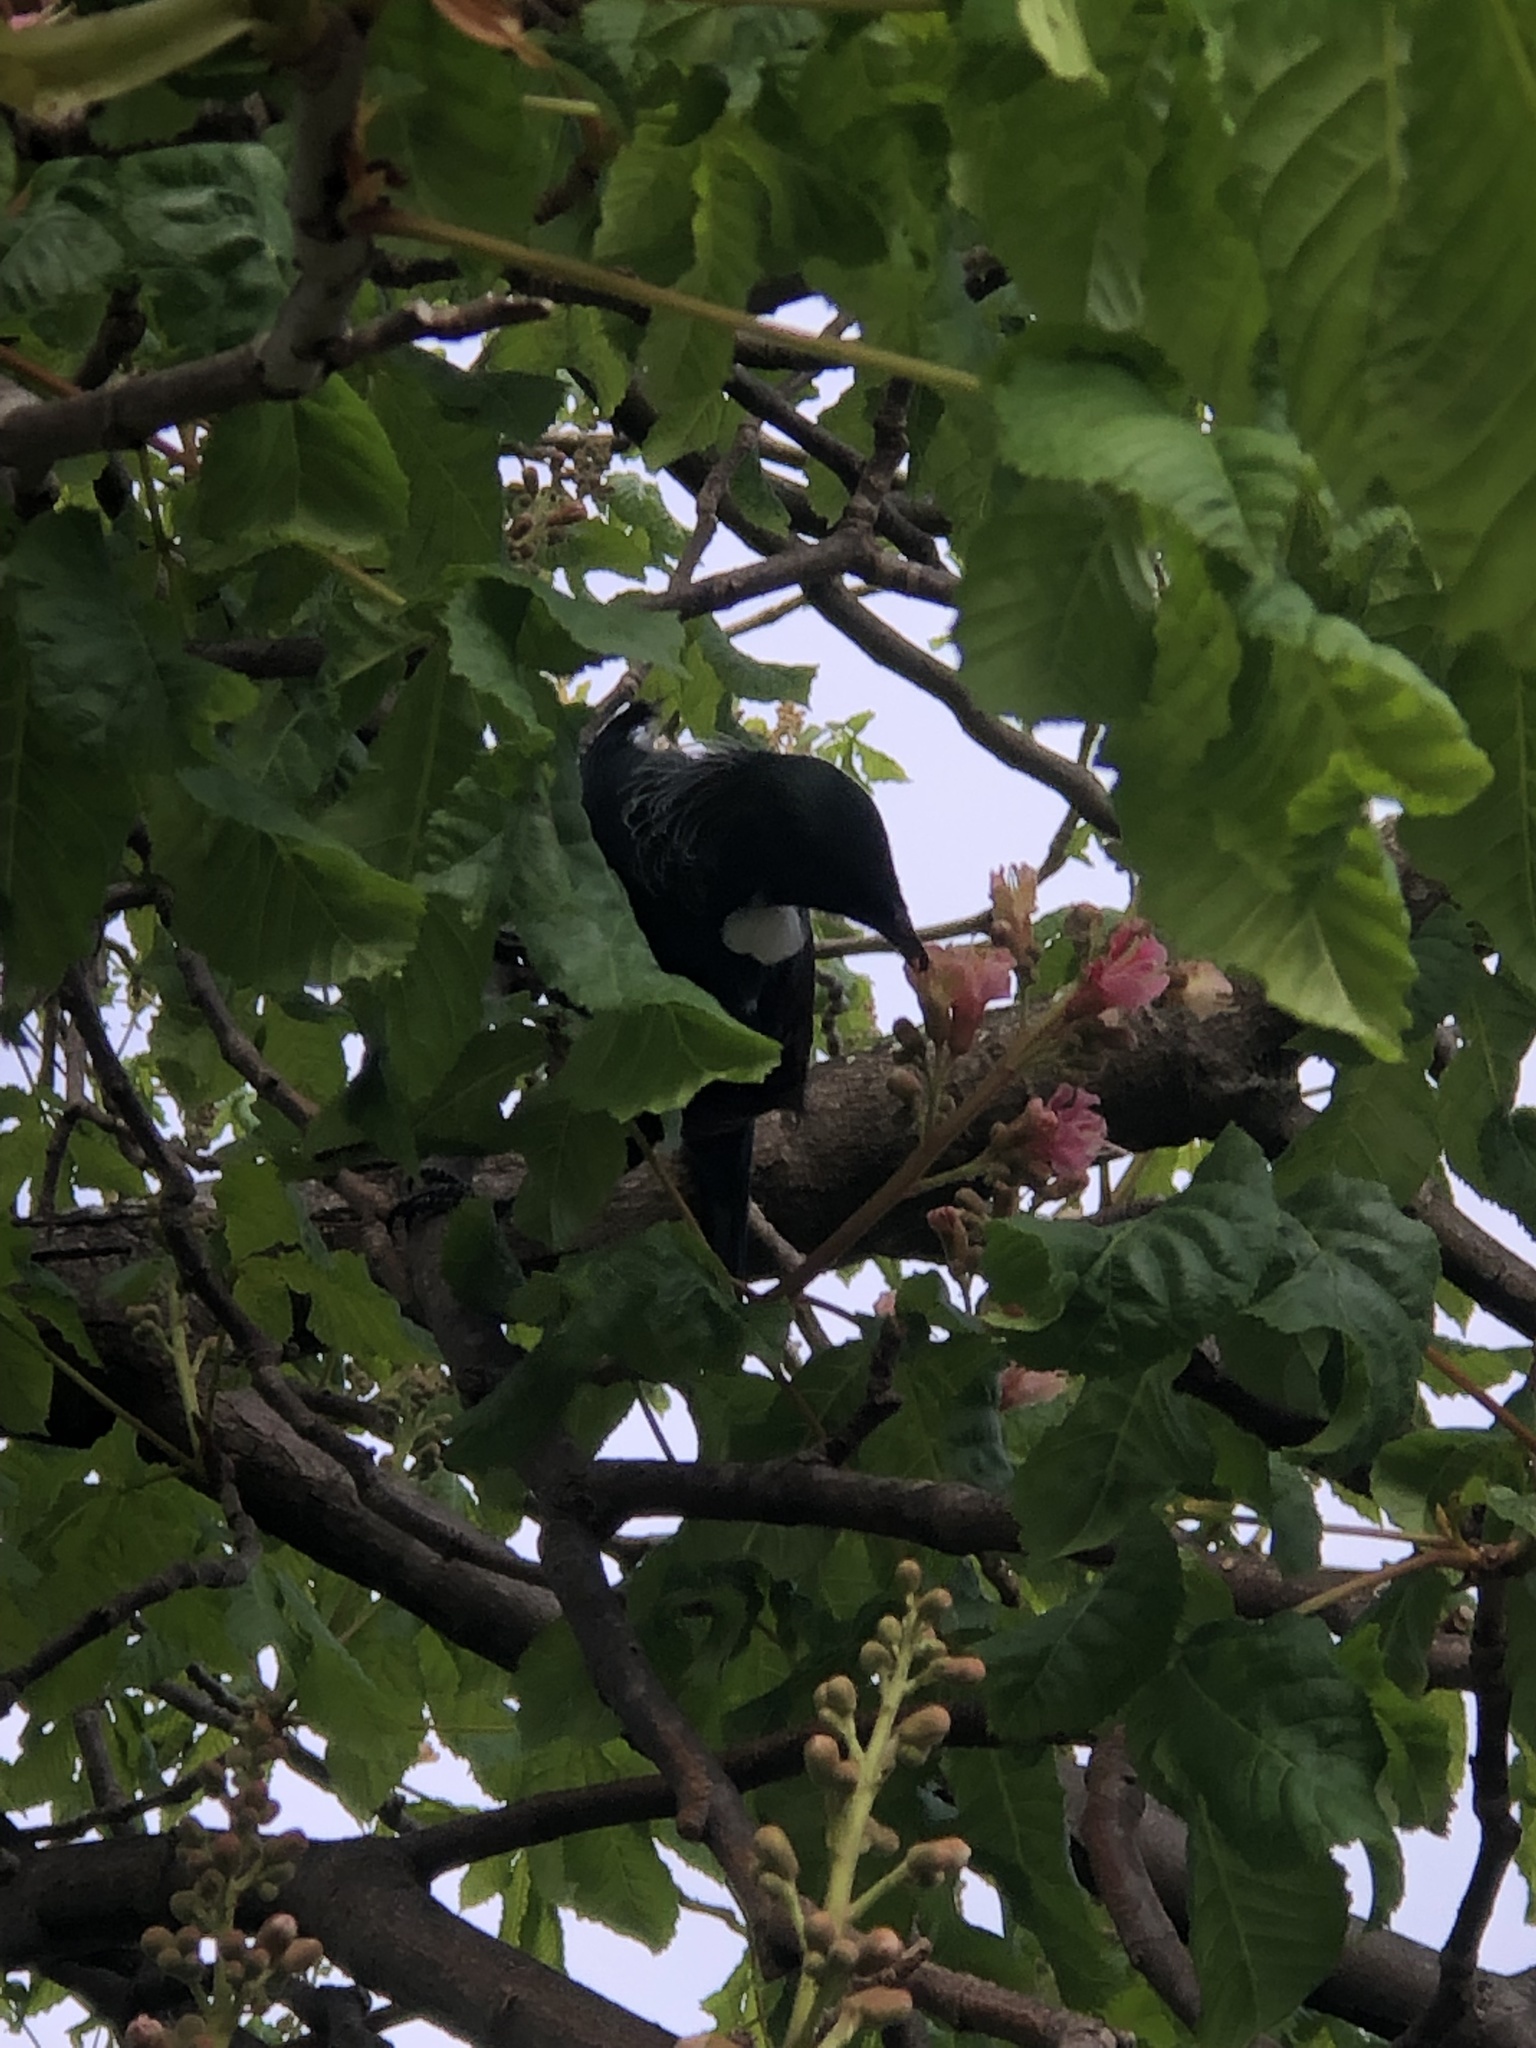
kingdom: Animalia
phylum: Chordata
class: Aves
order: Passeriformes
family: Meliphagidae
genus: Prosthemadera
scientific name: Prosthemadera novaeseelandiae
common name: Tui
